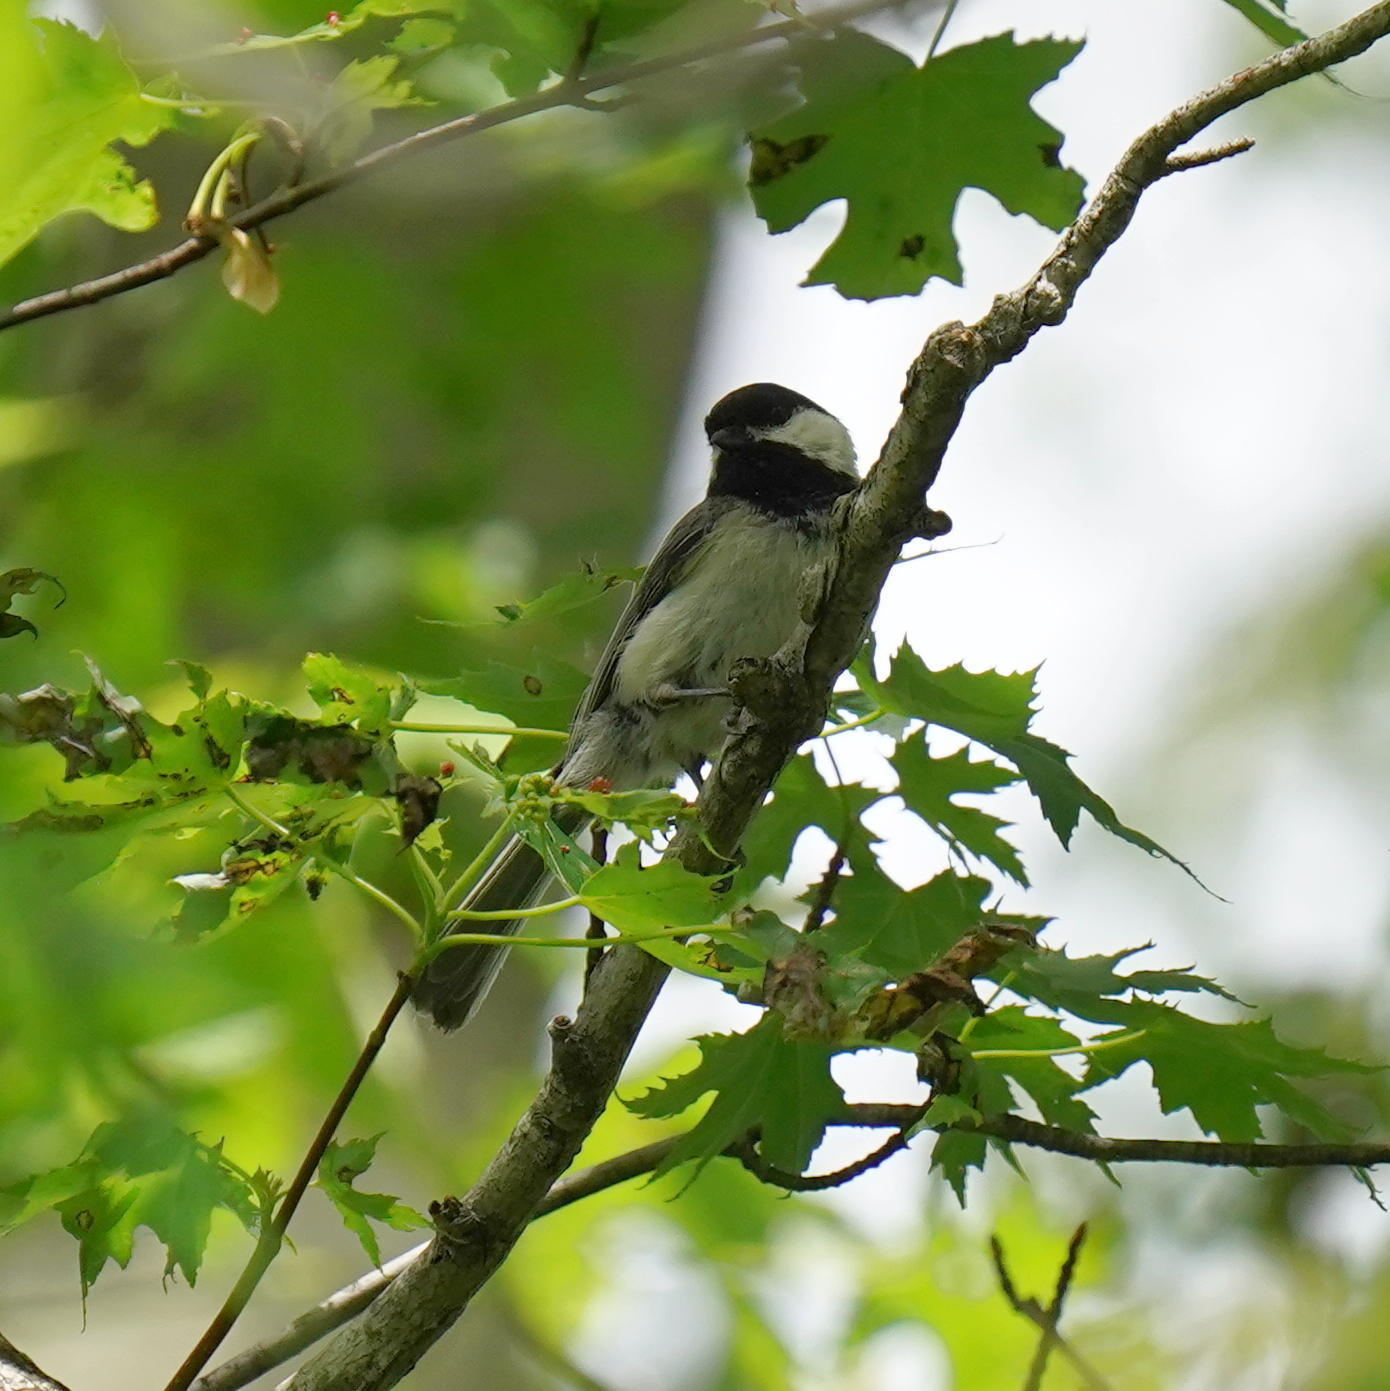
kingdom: Animalia
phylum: Chordata
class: Aves
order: Passeriformes
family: Paridae
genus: Poecile
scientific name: Poecile atricapillus
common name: Black-capped chickadee
